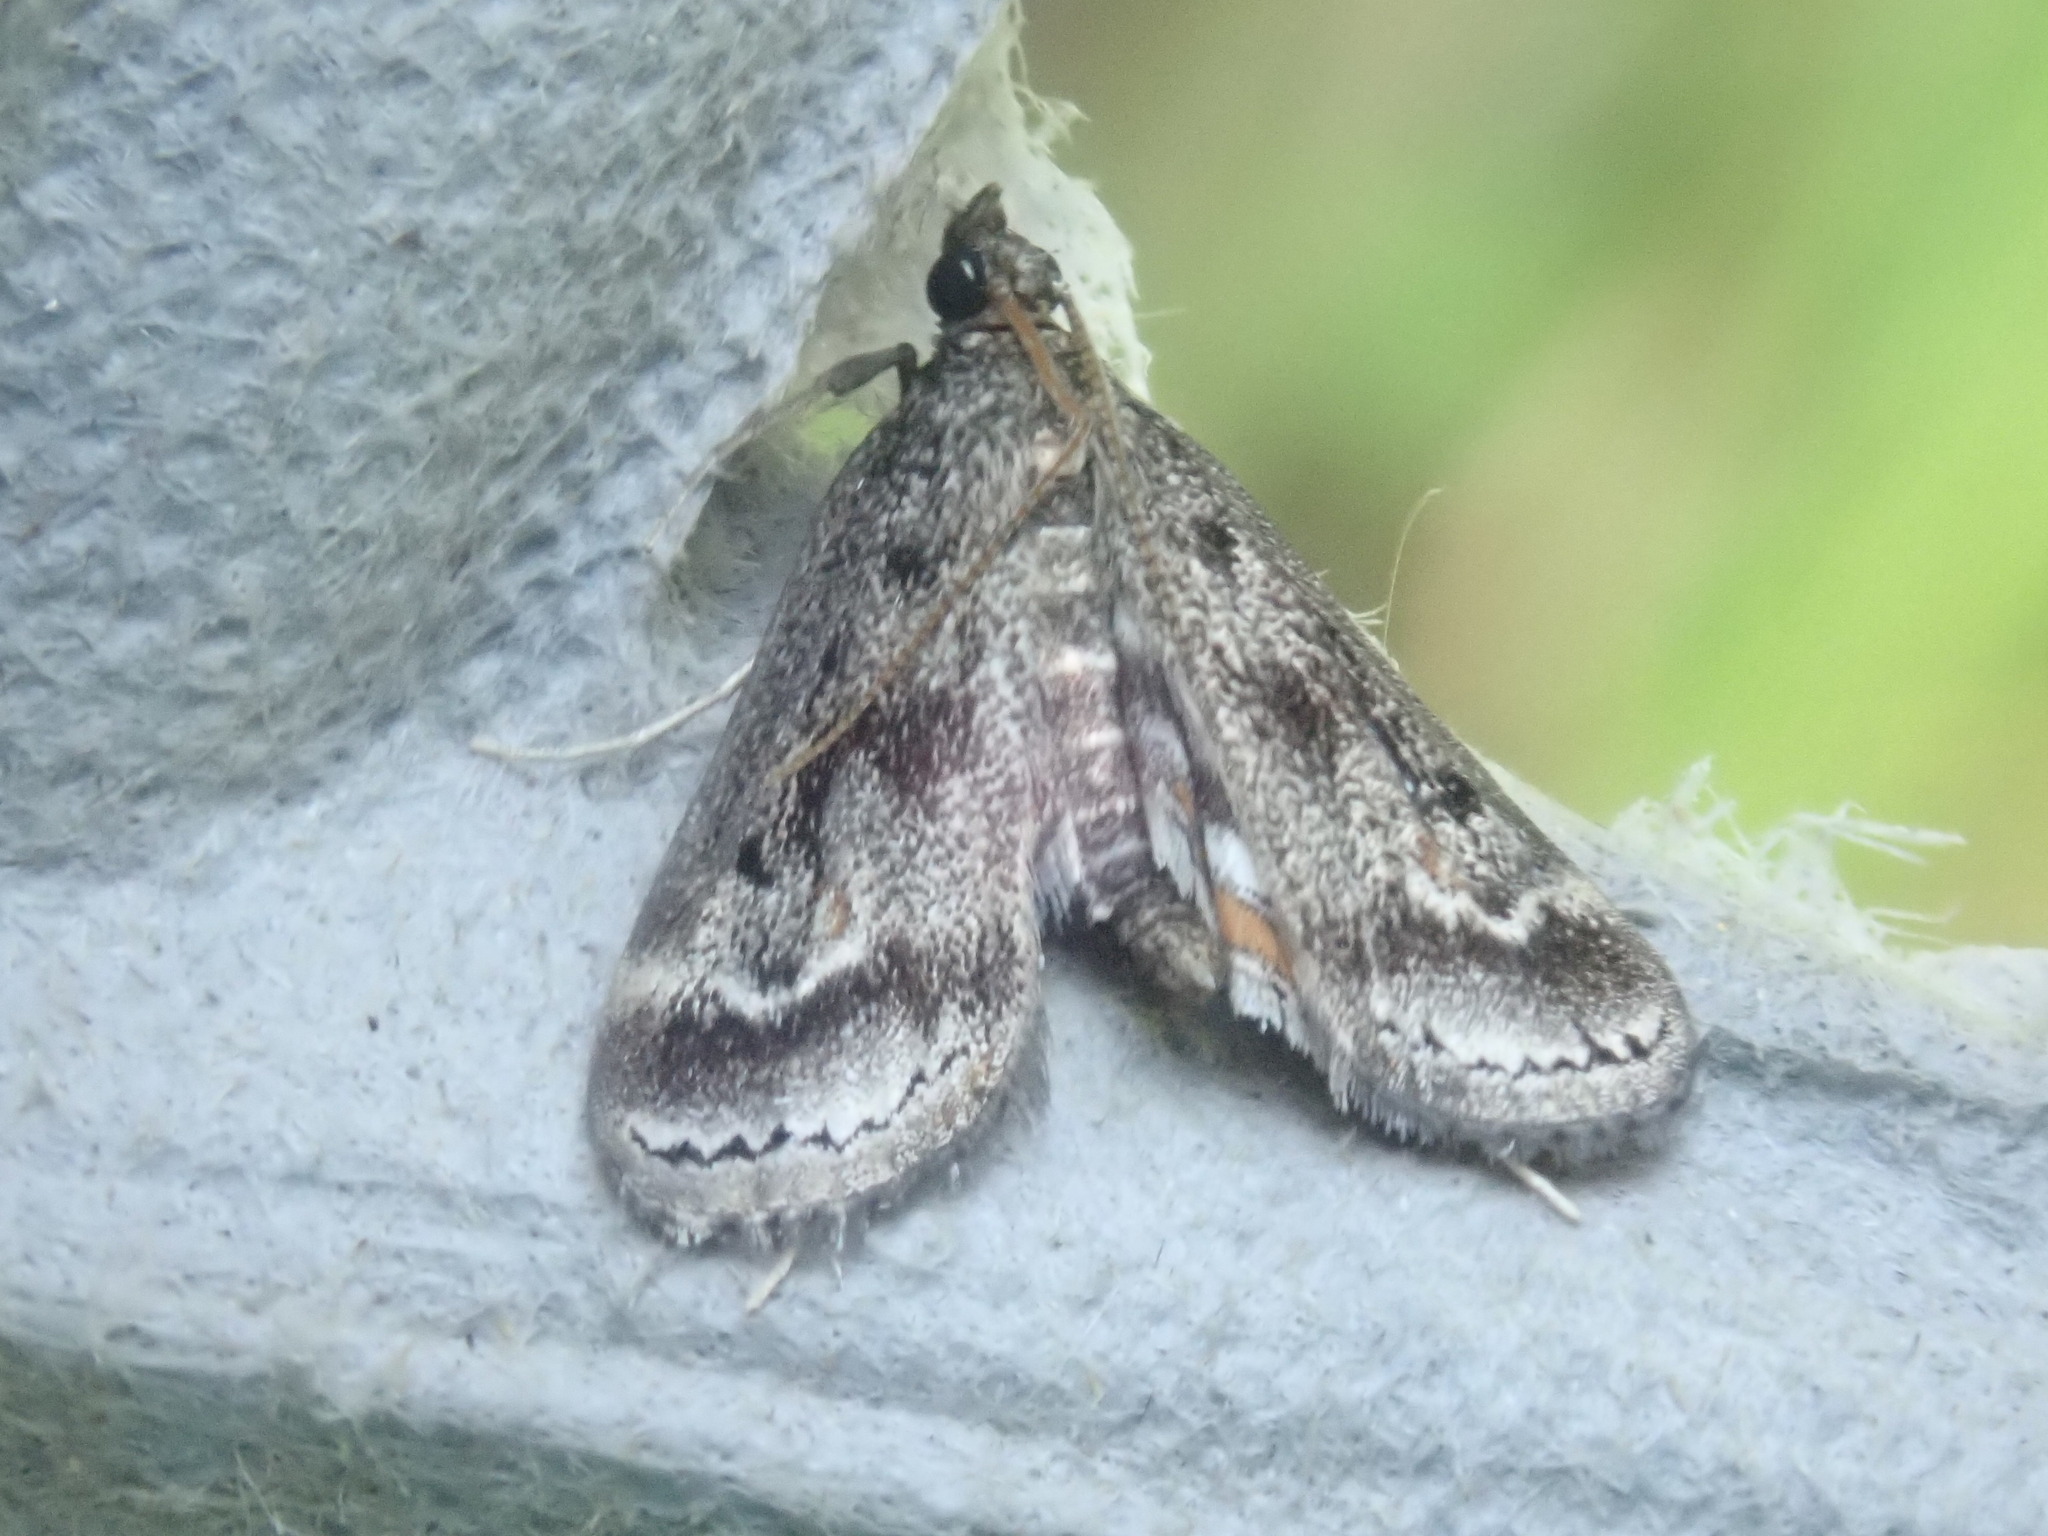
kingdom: Animalia
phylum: Arthropoda
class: Insecta
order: Lepidoptera
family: Crambidae
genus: Parapoynx
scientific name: Parapoynx obscuralis
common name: American china-mark
